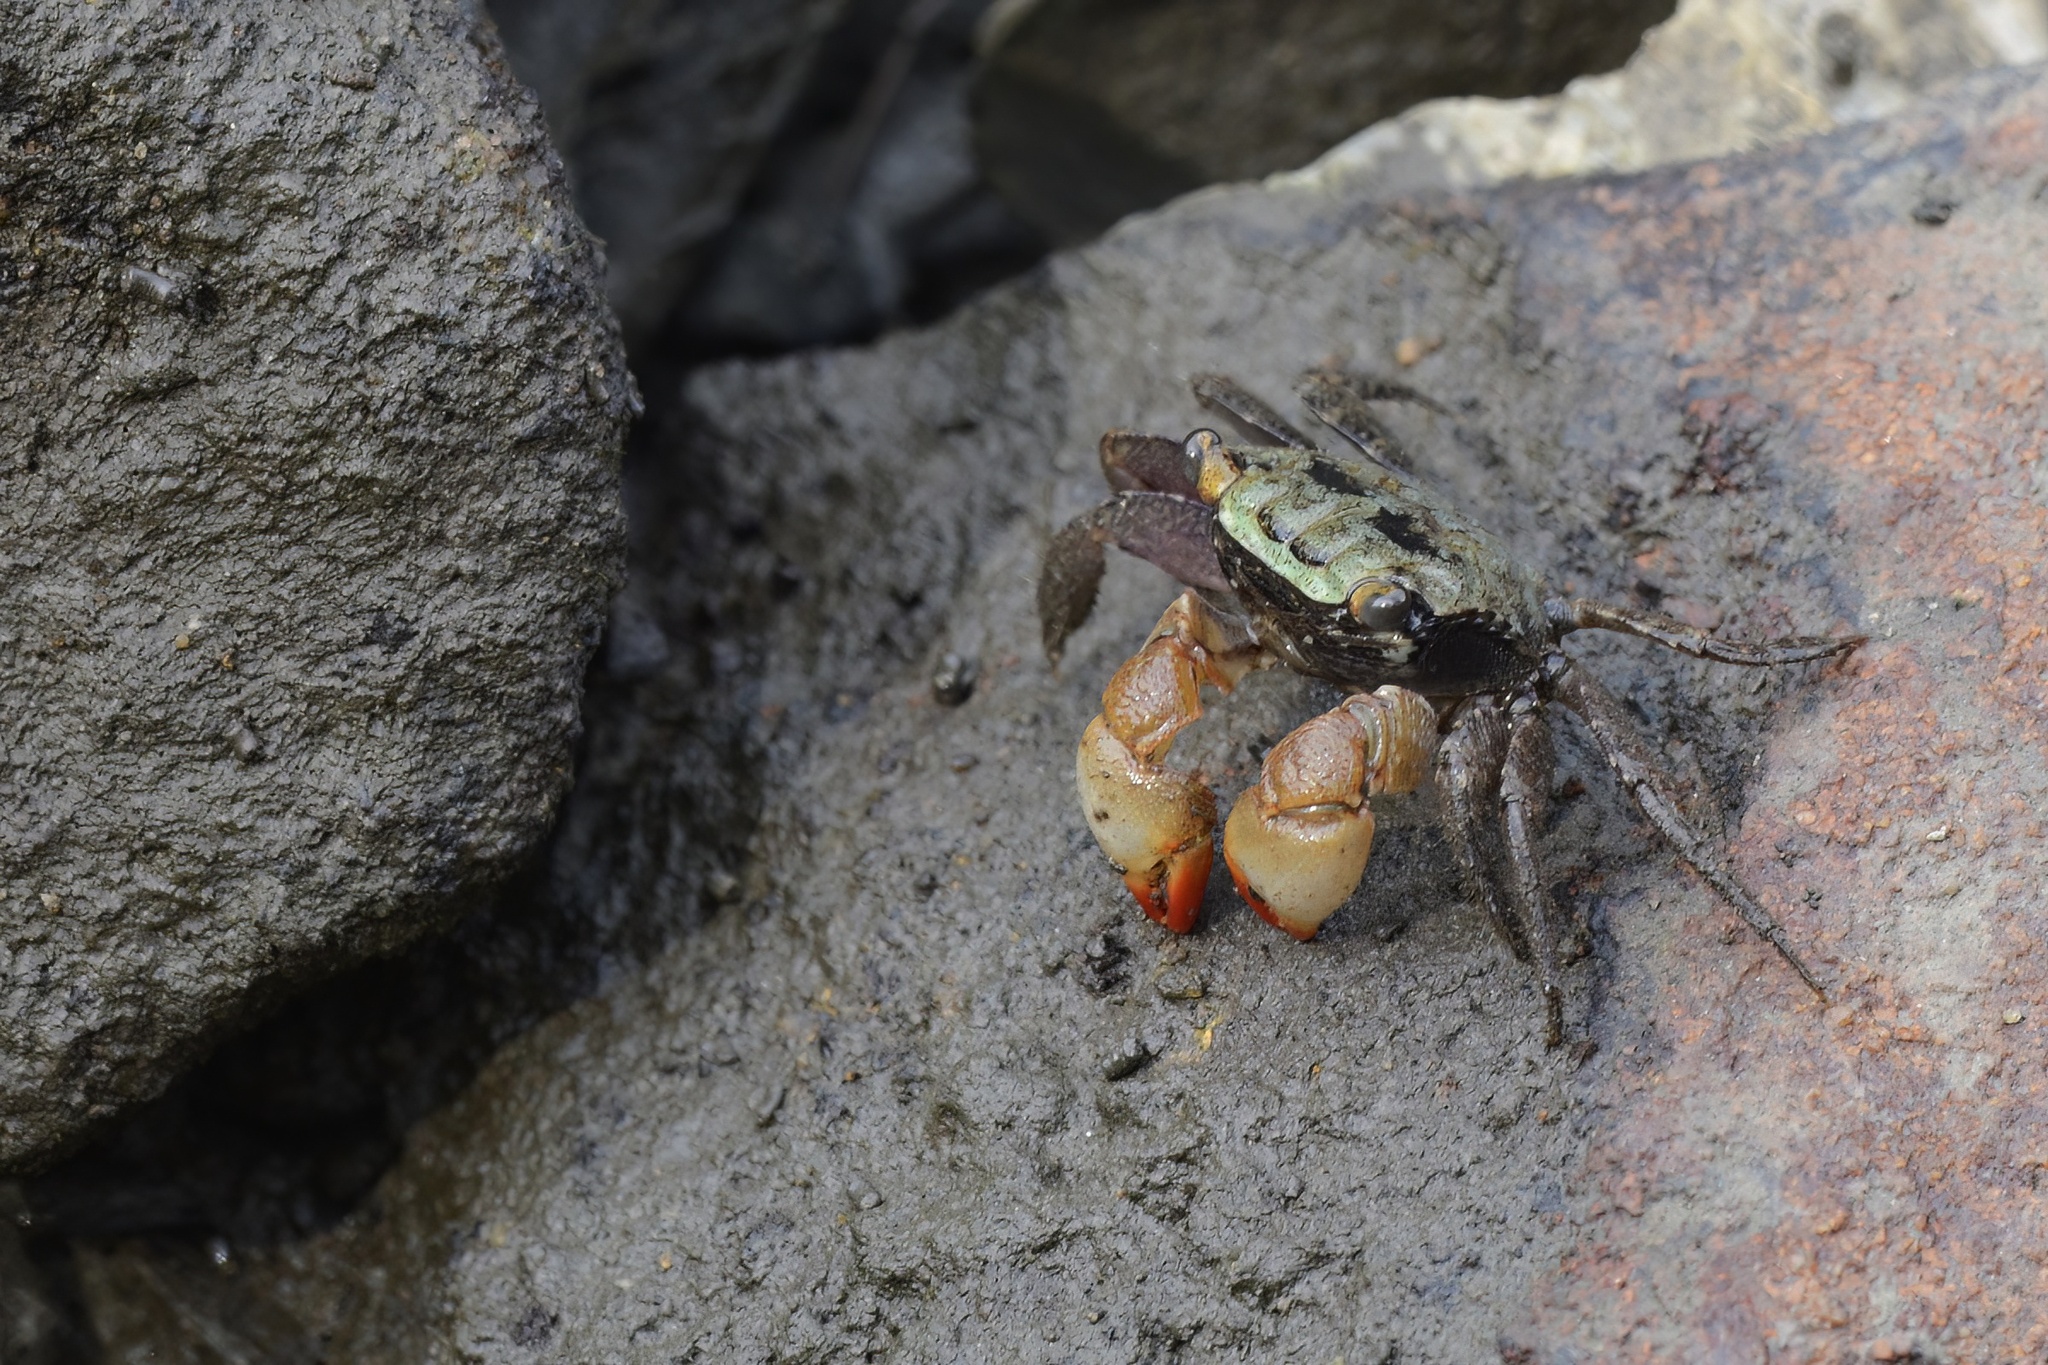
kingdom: Animalia
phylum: Arthropoda
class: Malacostraca
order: Decapoda
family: Sesarmidae
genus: Parasesarma
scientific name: Parasesarma erythodactylum
